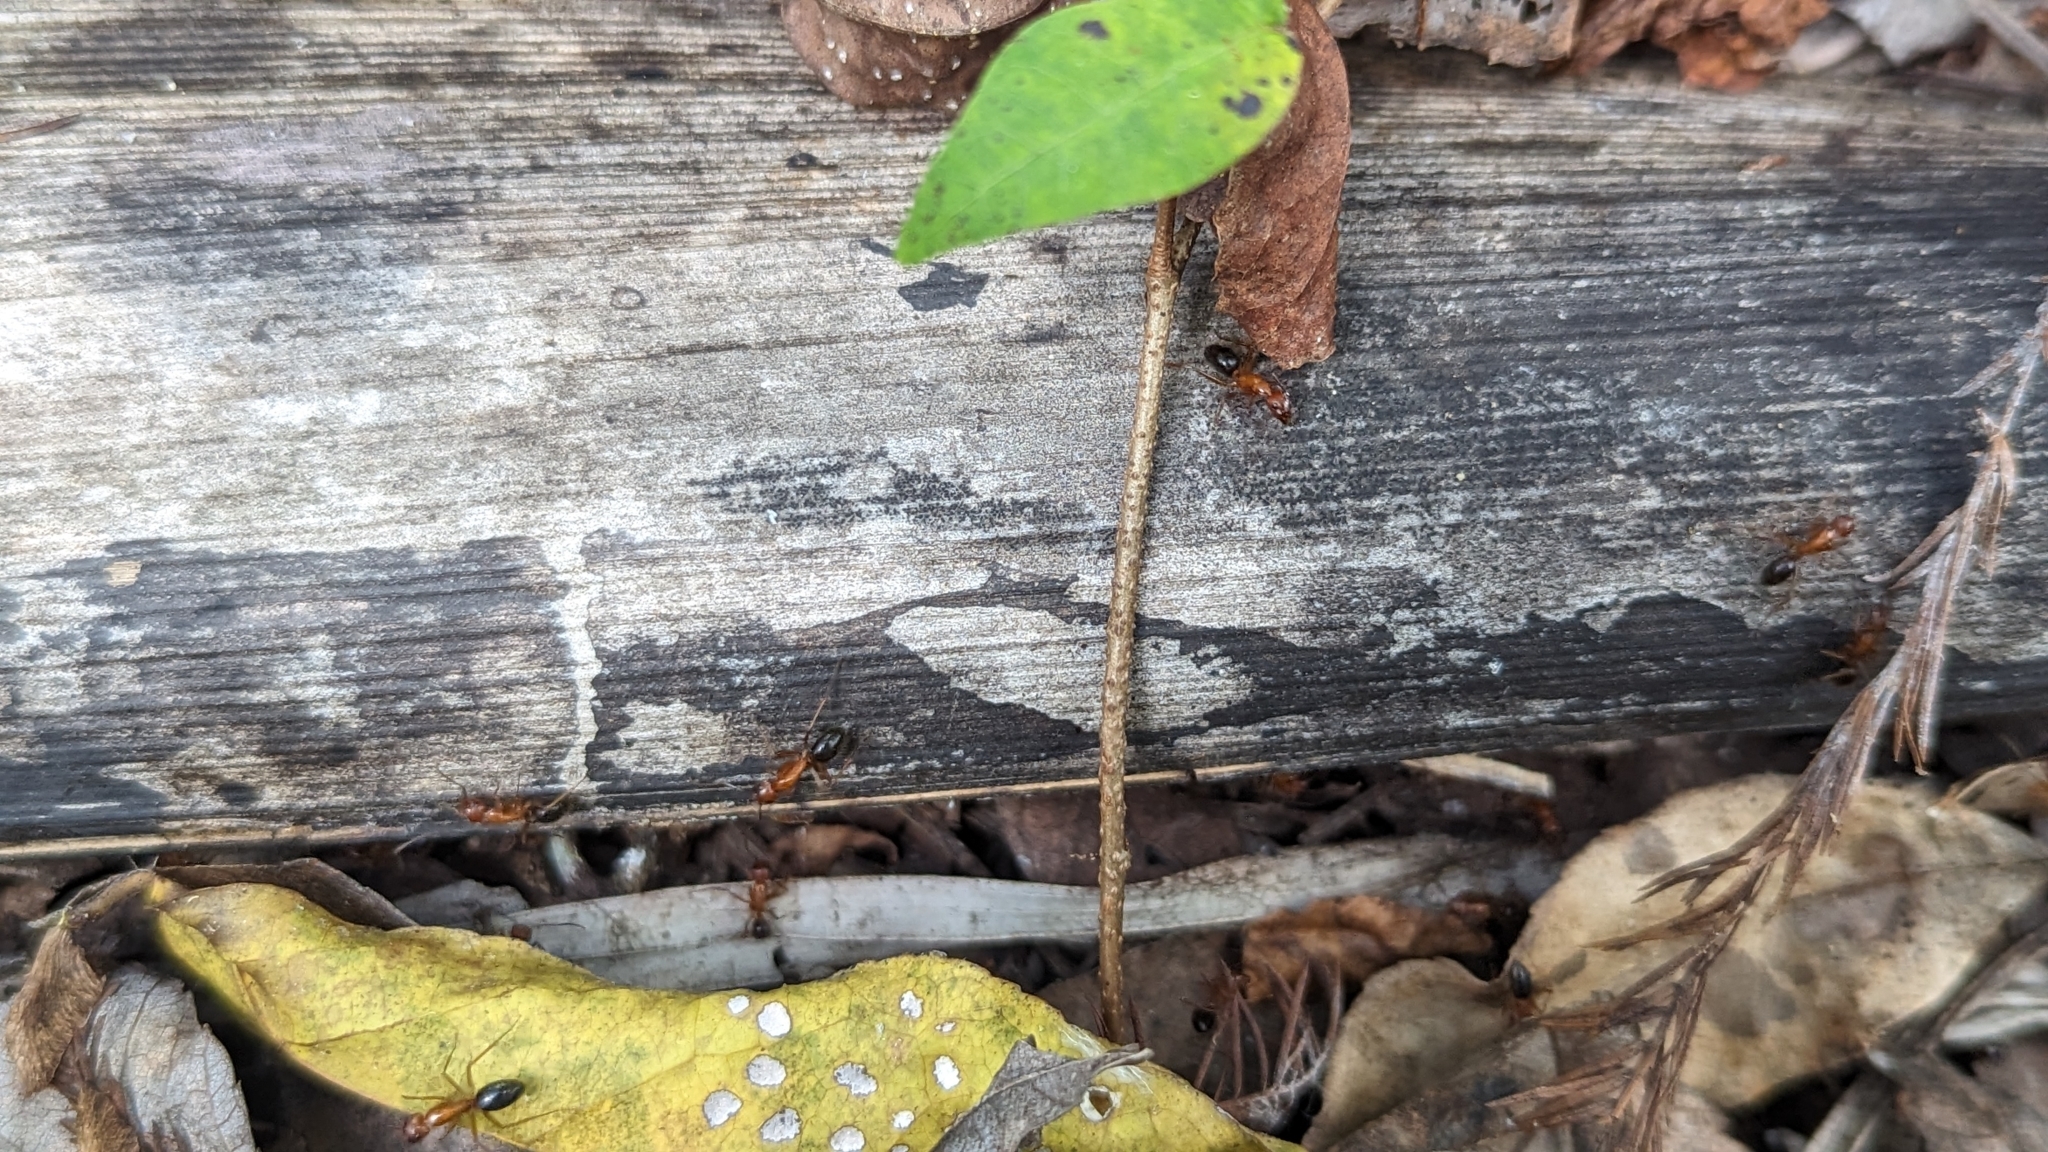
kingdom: Animalia
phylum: Arthropoda
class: Insecta
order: Hymenoptera
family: Formicidae
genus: Camponotus
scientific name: Camponotus floridanus
